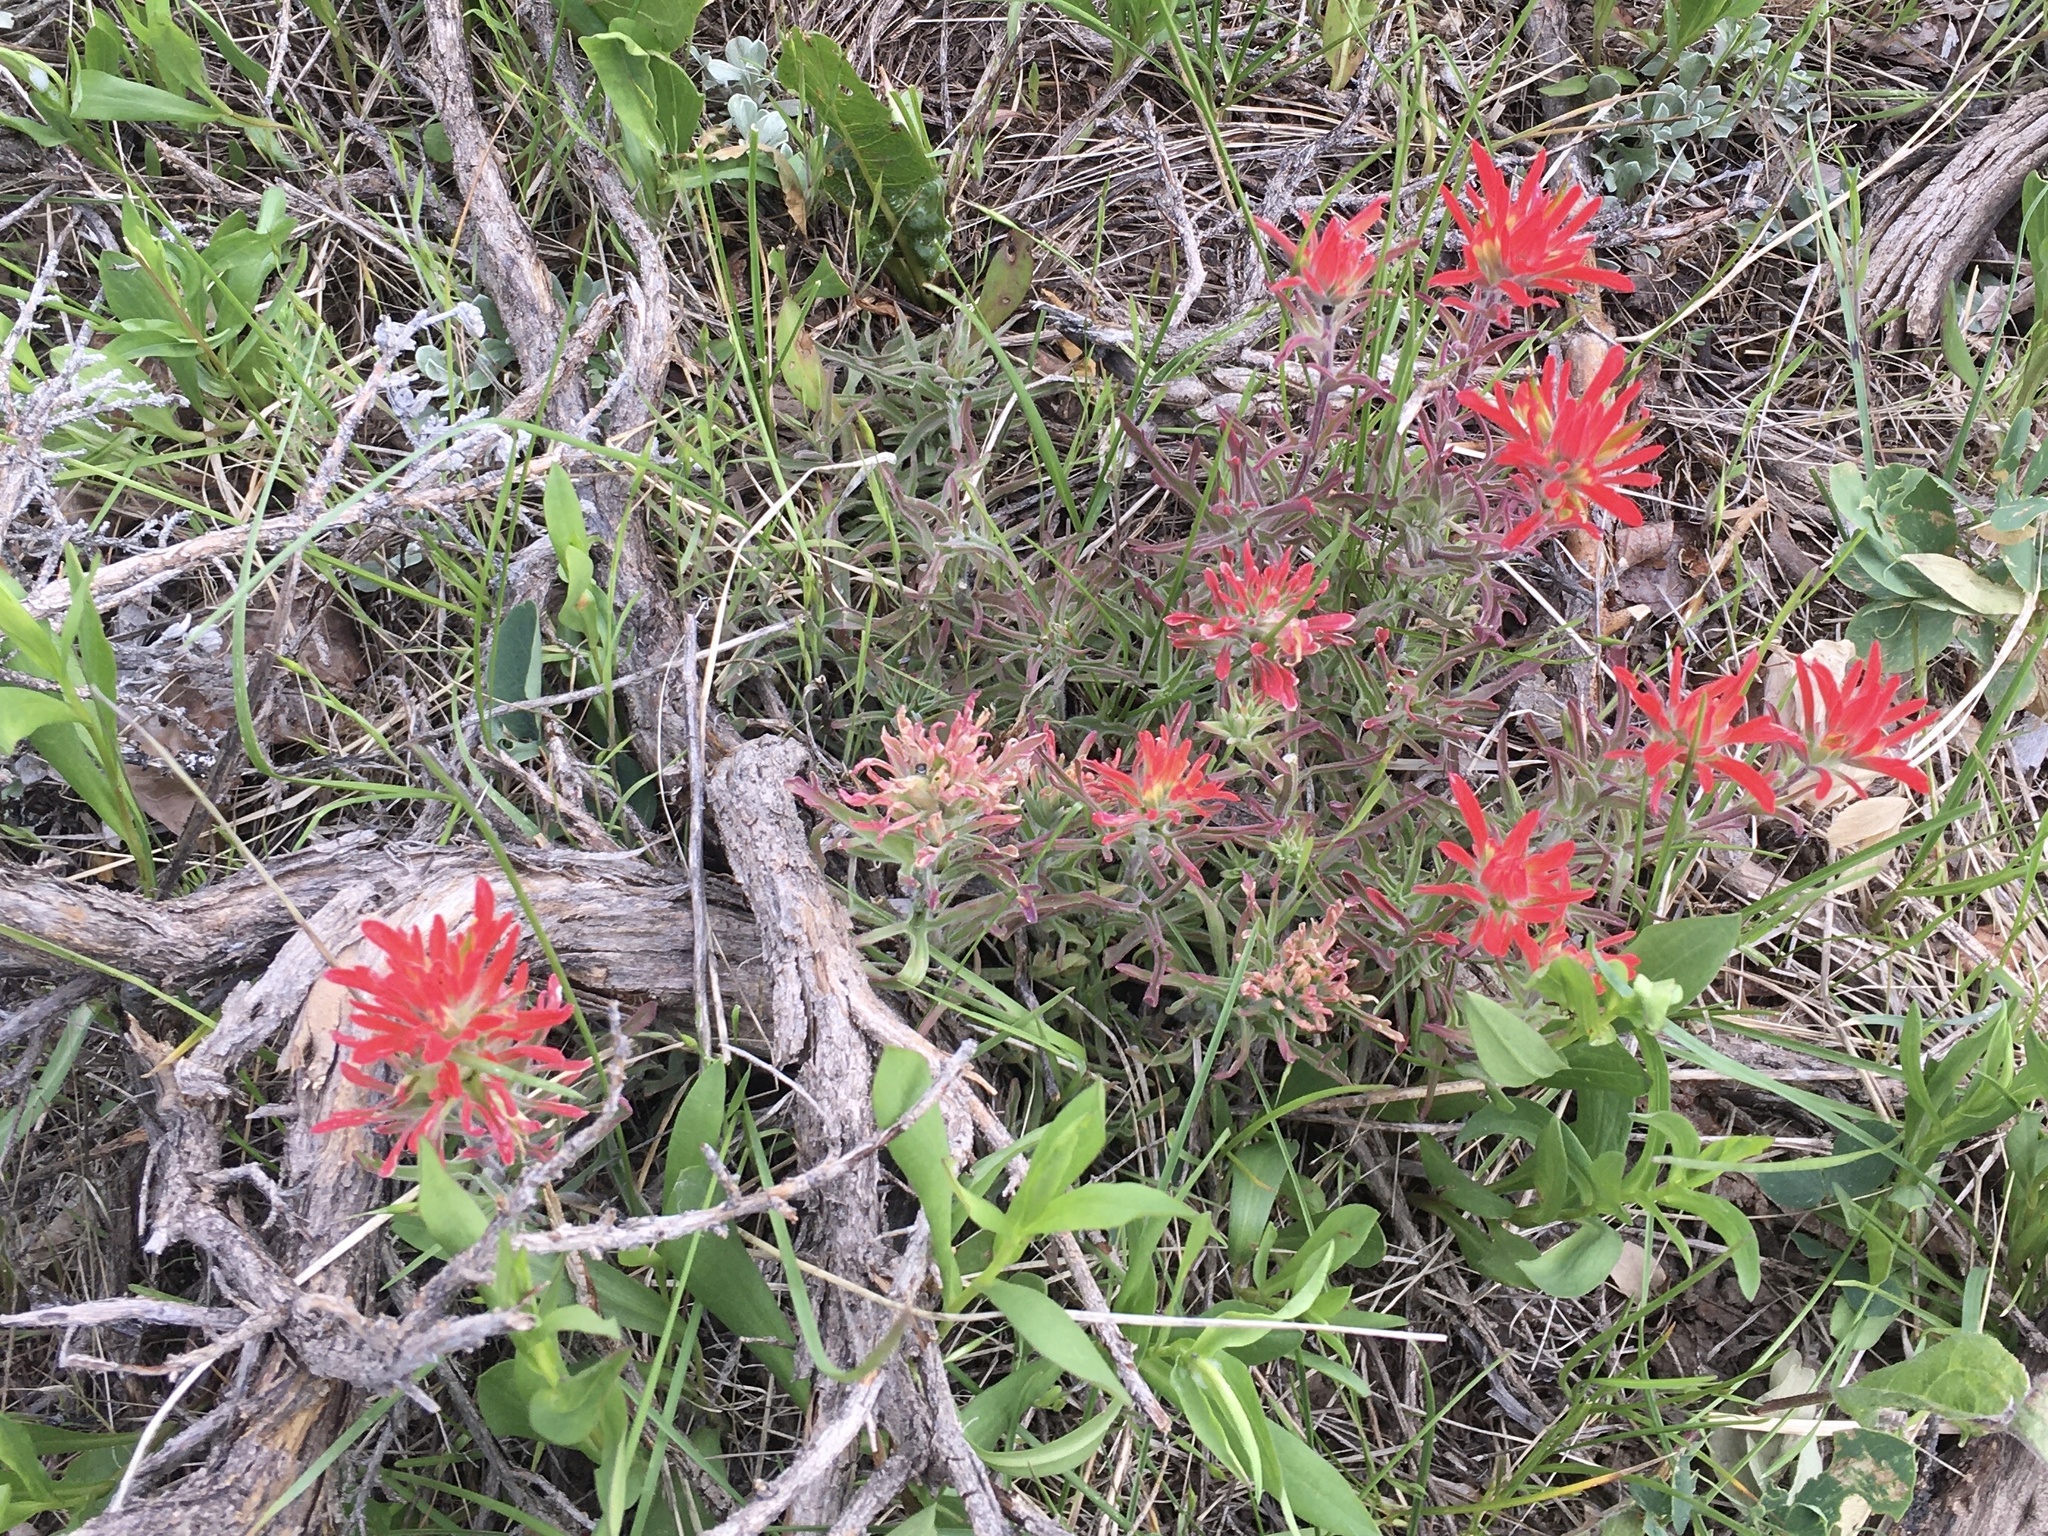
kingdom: Plantae
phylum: Tracheophyta
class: Magnoliopsida
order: Lamiales
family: Orobanchaceae
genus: Castilleja
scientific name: Castilleja chromosa
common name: Desert paintbrush
